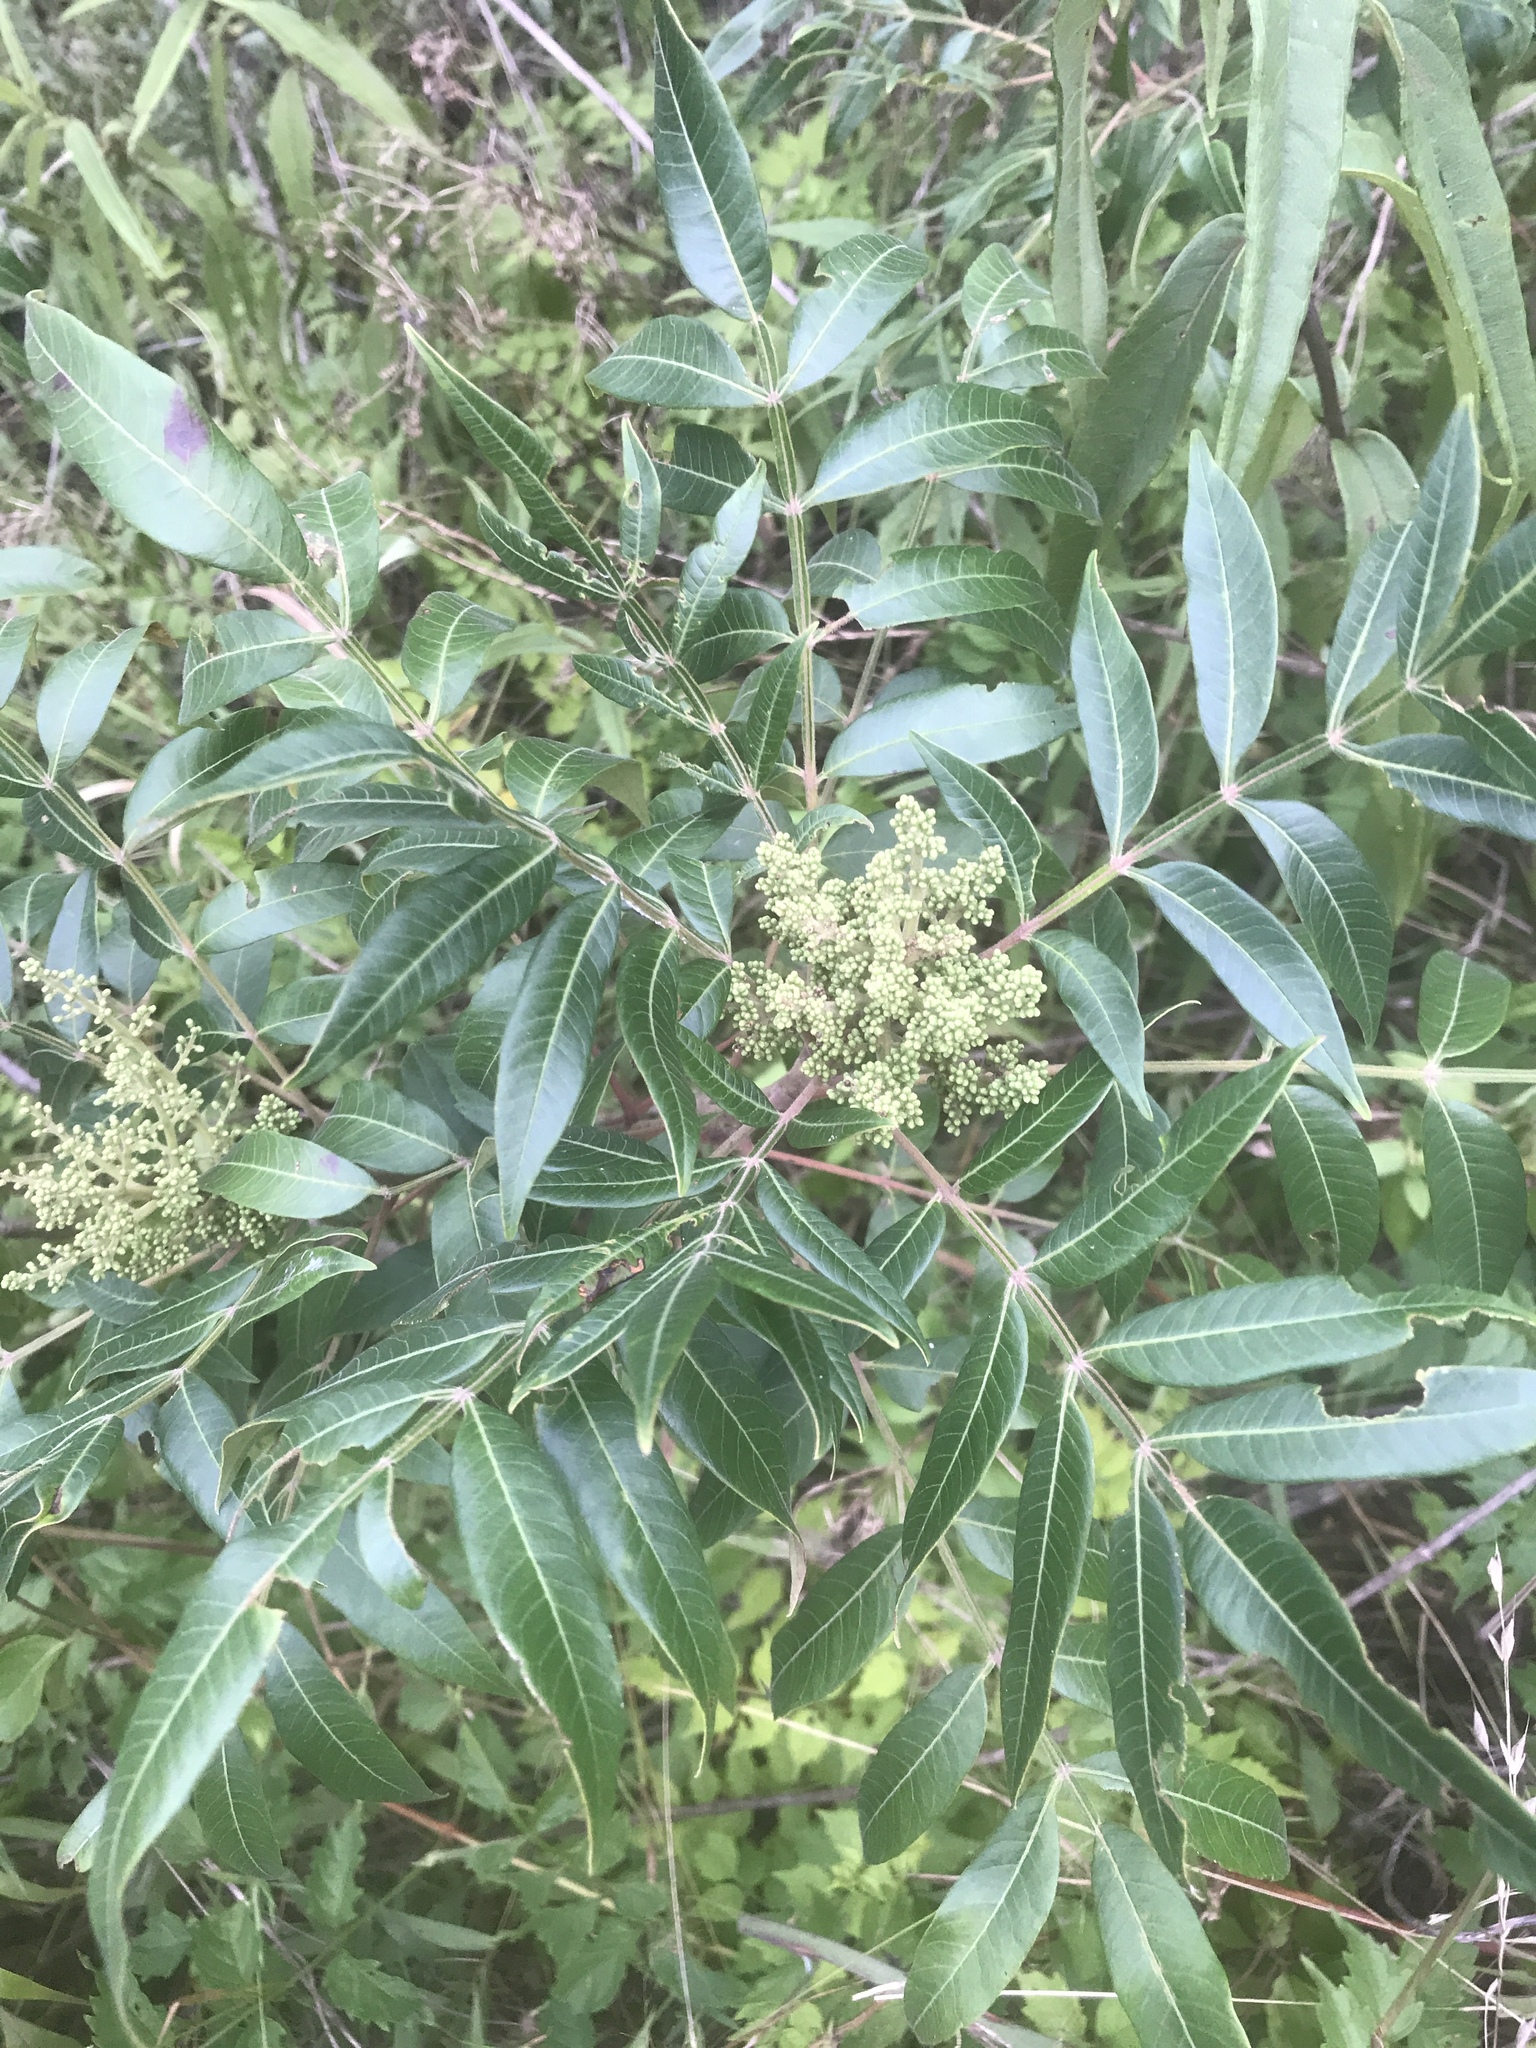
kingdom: Plantae
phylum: Tracheophyta
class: Magnoliopsida
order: Sapindales
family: Anacardiaceae
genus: Rhus
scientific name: Rhus copallina
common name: Shining sumac
